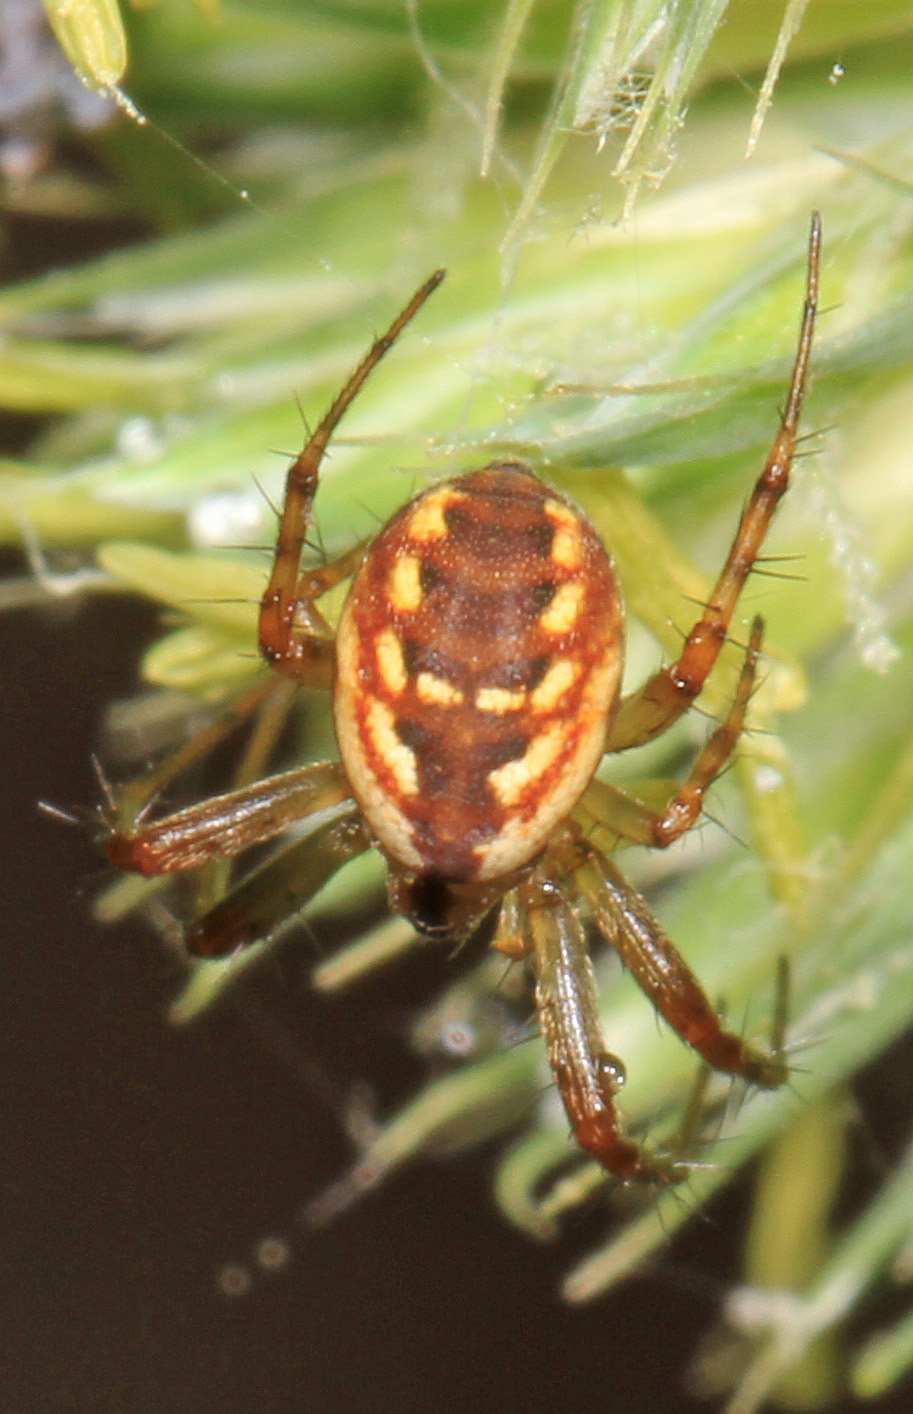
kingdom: Animalia
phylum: Arthropoda
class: Arachnida
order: Araneae
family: Araneidae
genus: Mangora
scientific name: Mangora placida
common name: Tuft-legged orbweaver
